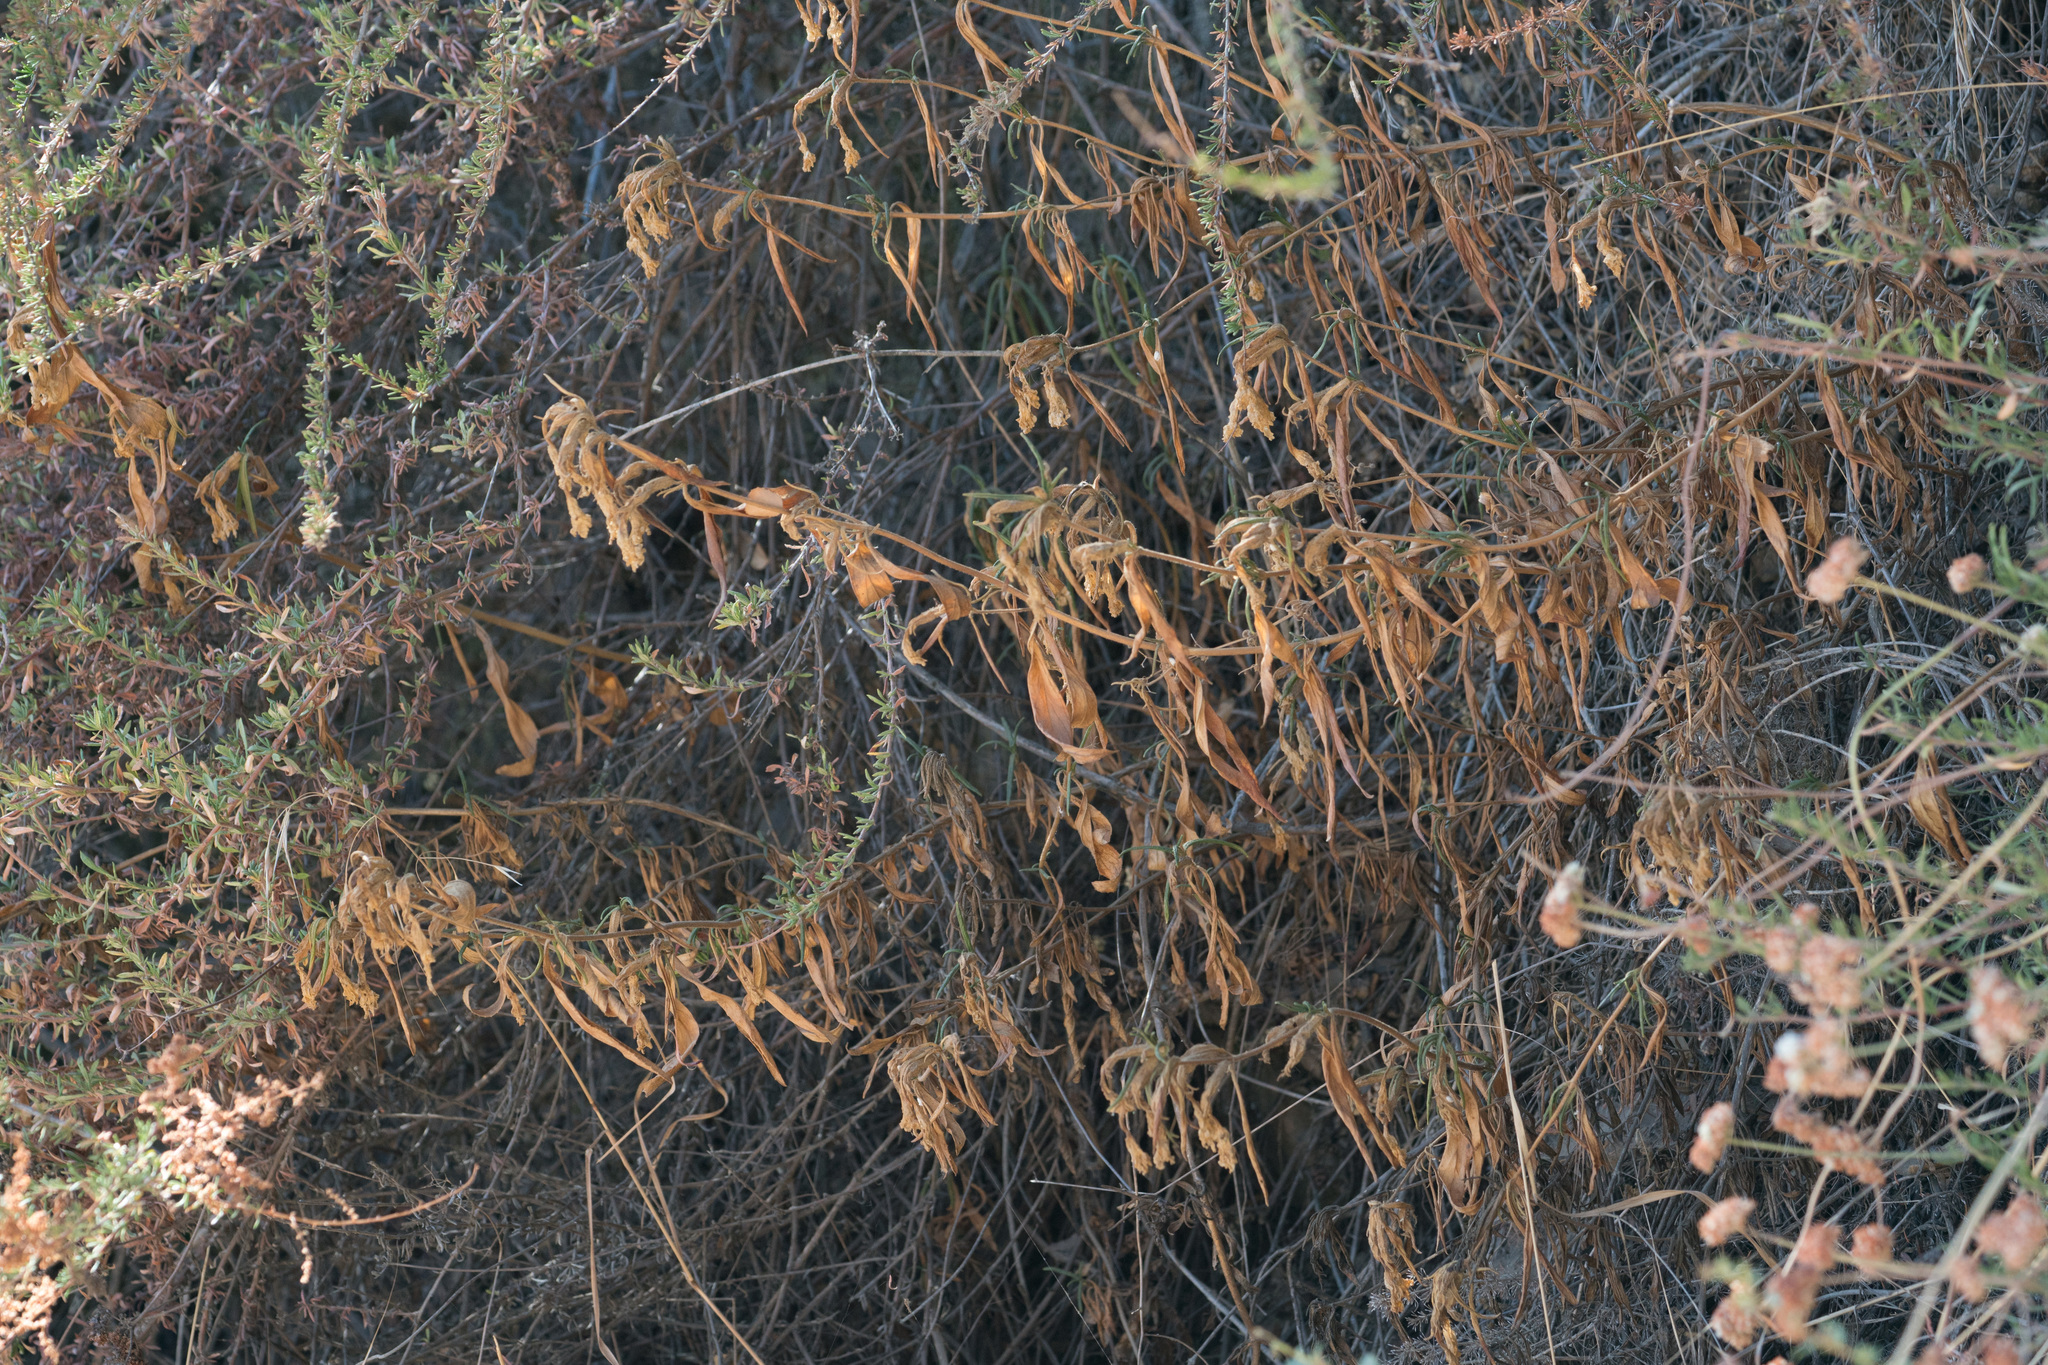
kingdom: Plantae
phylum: Tracheophyta
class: Magnoliopsida
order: Lamiales
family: Phrymaceae
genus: Diplacus
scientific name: Diplacus longiflorus
